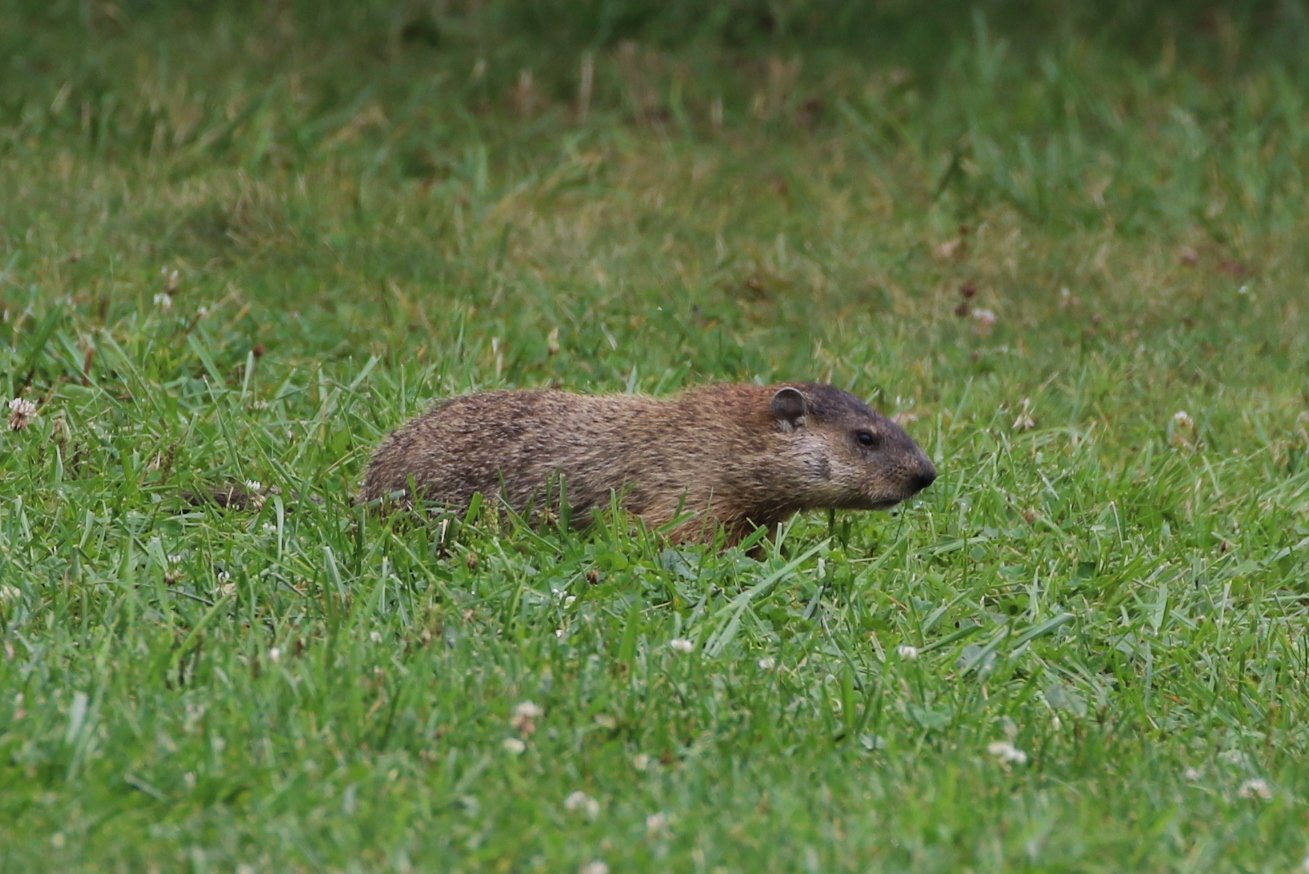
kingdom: Animalia
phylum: Chordata
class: Mammalia
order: Rodentia
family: Sciuridae
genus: Marmota
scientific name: Marmota monax
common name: Groundhog
